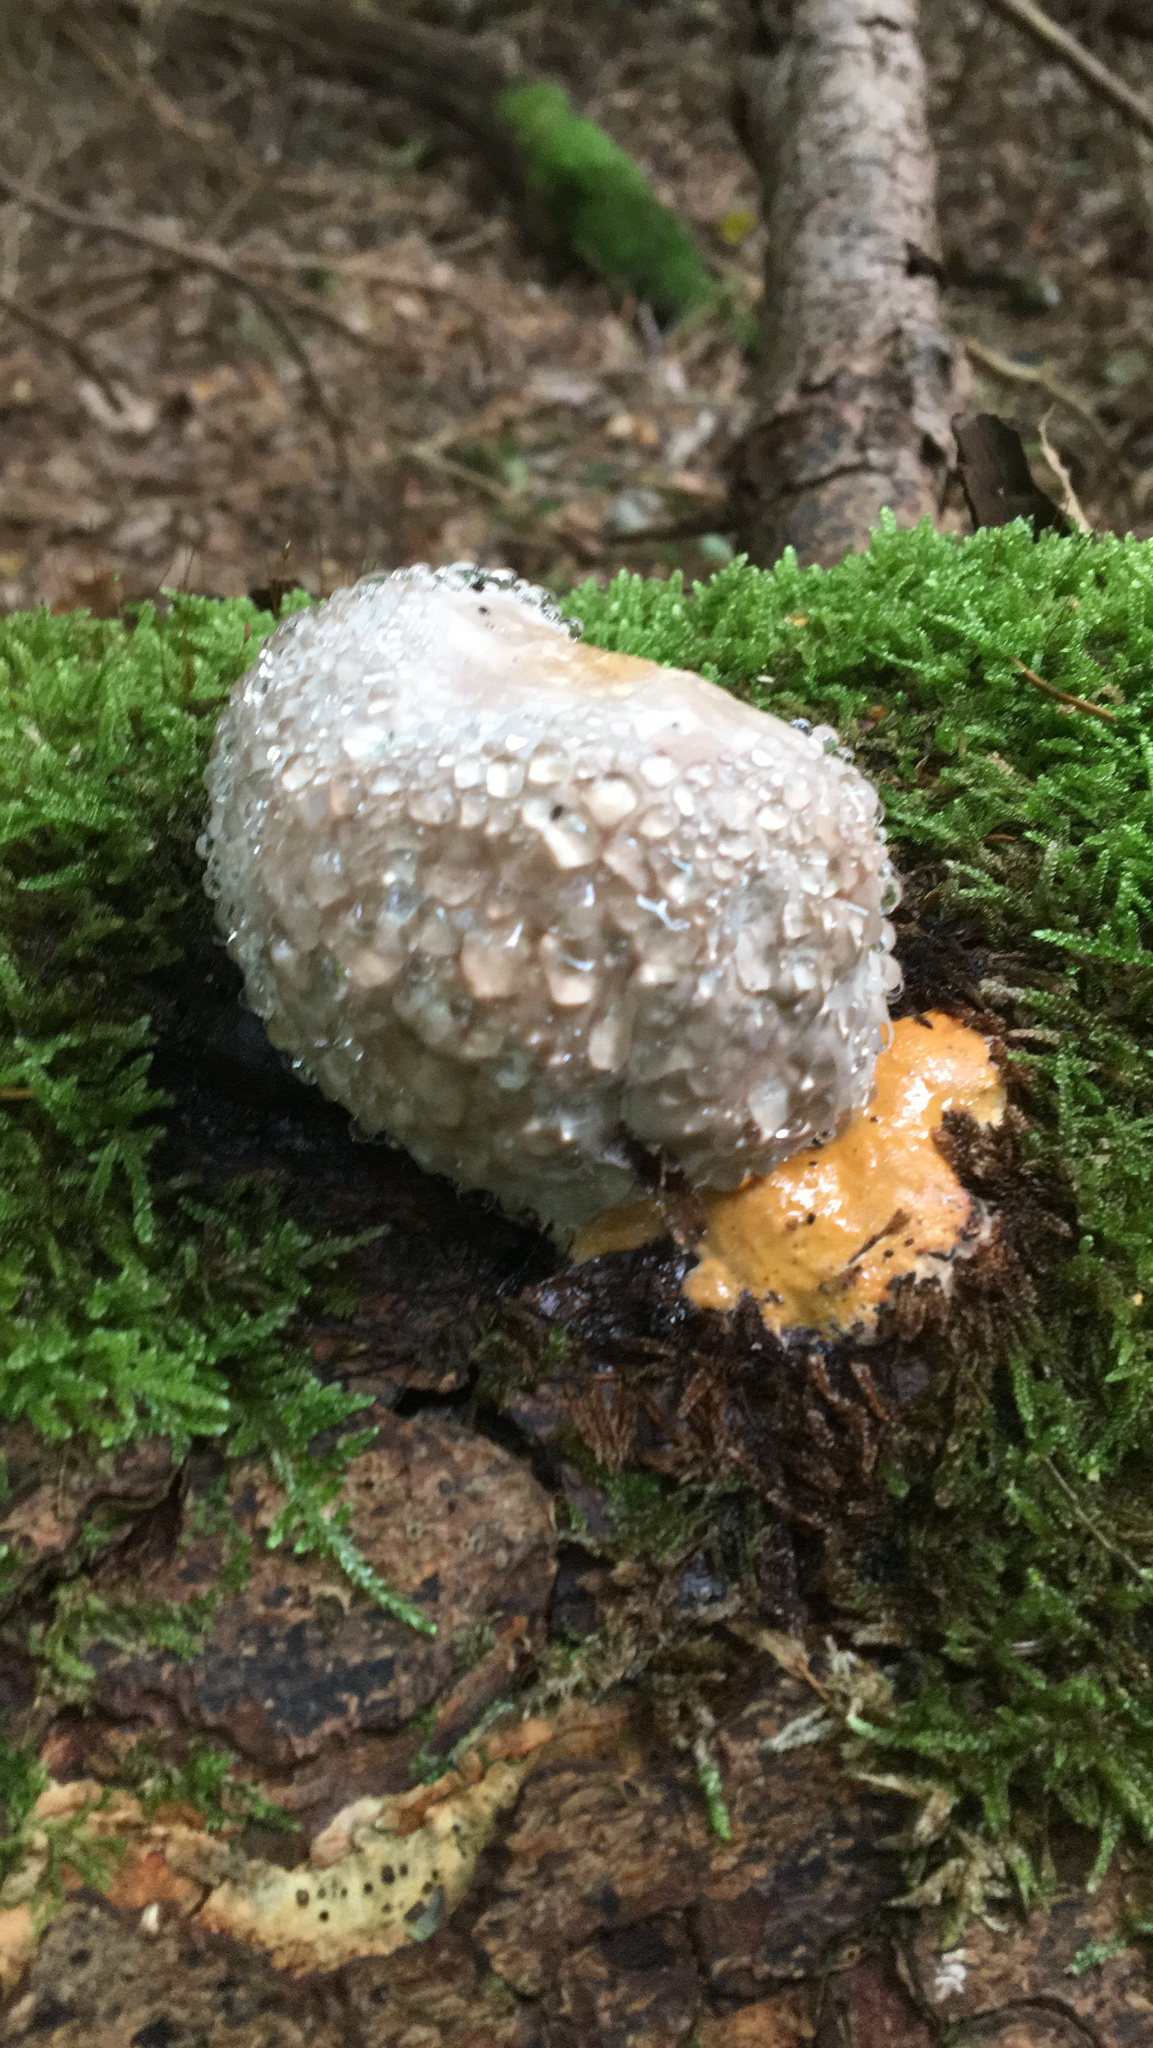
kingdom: Fungi
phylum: Basidiomycota
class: Agaricomycetes
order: Polyporales
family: Fomitopsidaceae
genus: Fomitopsis
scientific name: Fomitopsis pinicola
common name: Red-belted bracket
